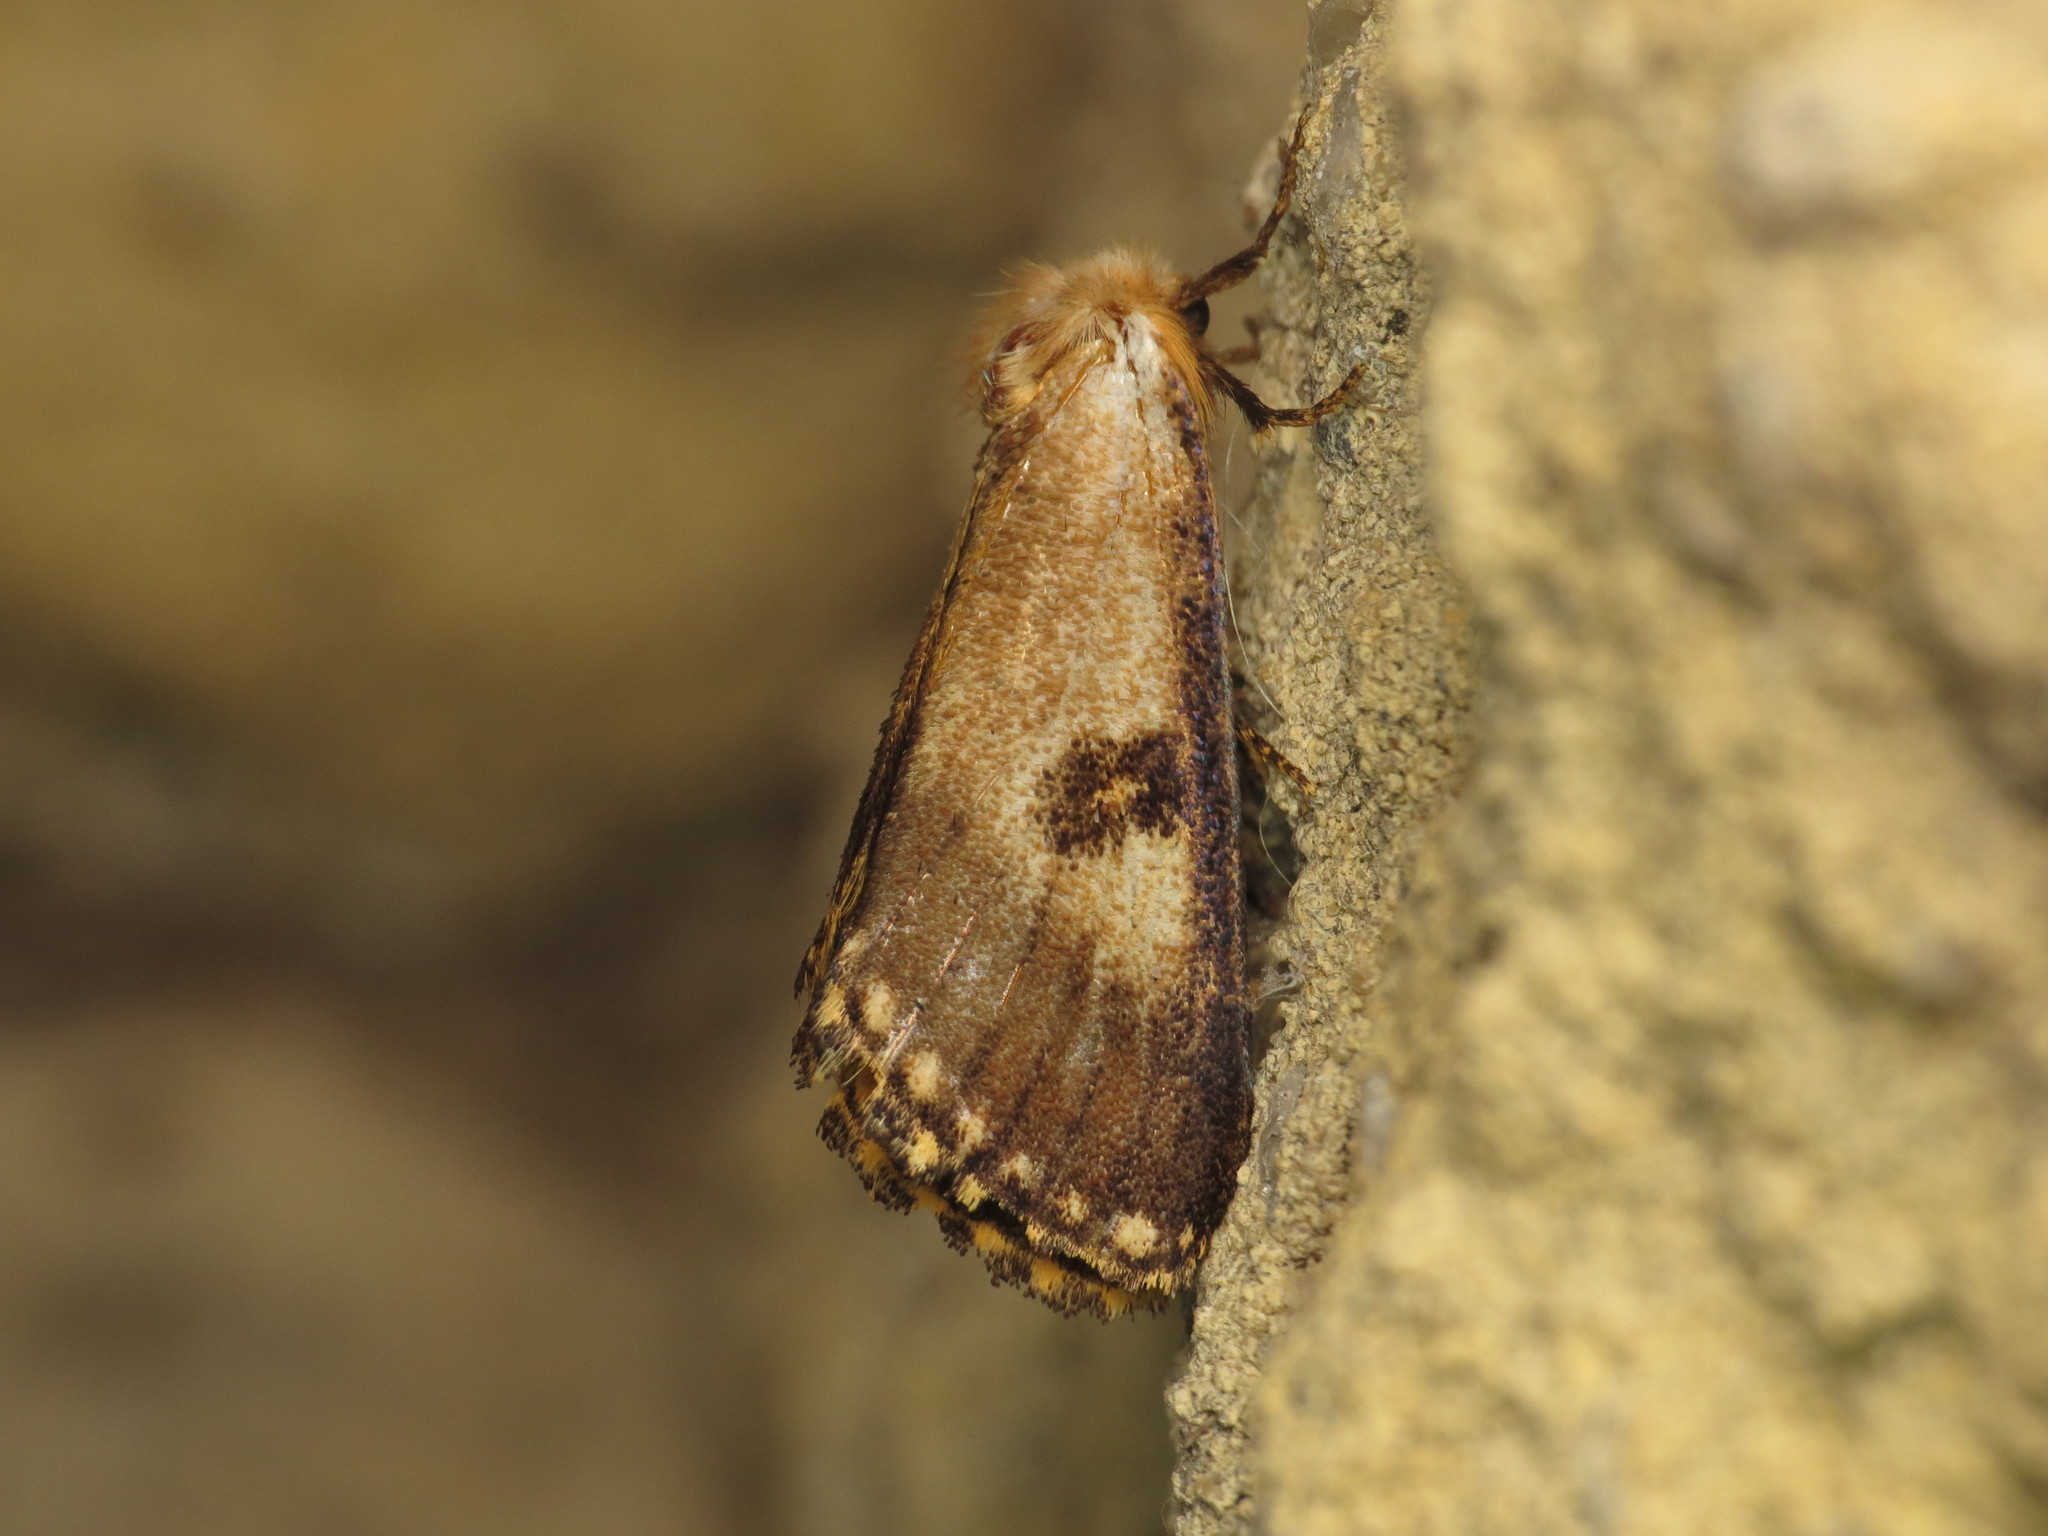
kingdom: Animalia
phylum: Arthropoda
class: Insecta
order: Lepidoptera
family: Notodontidae
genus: Epicoma
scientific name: Epicoma contristis
